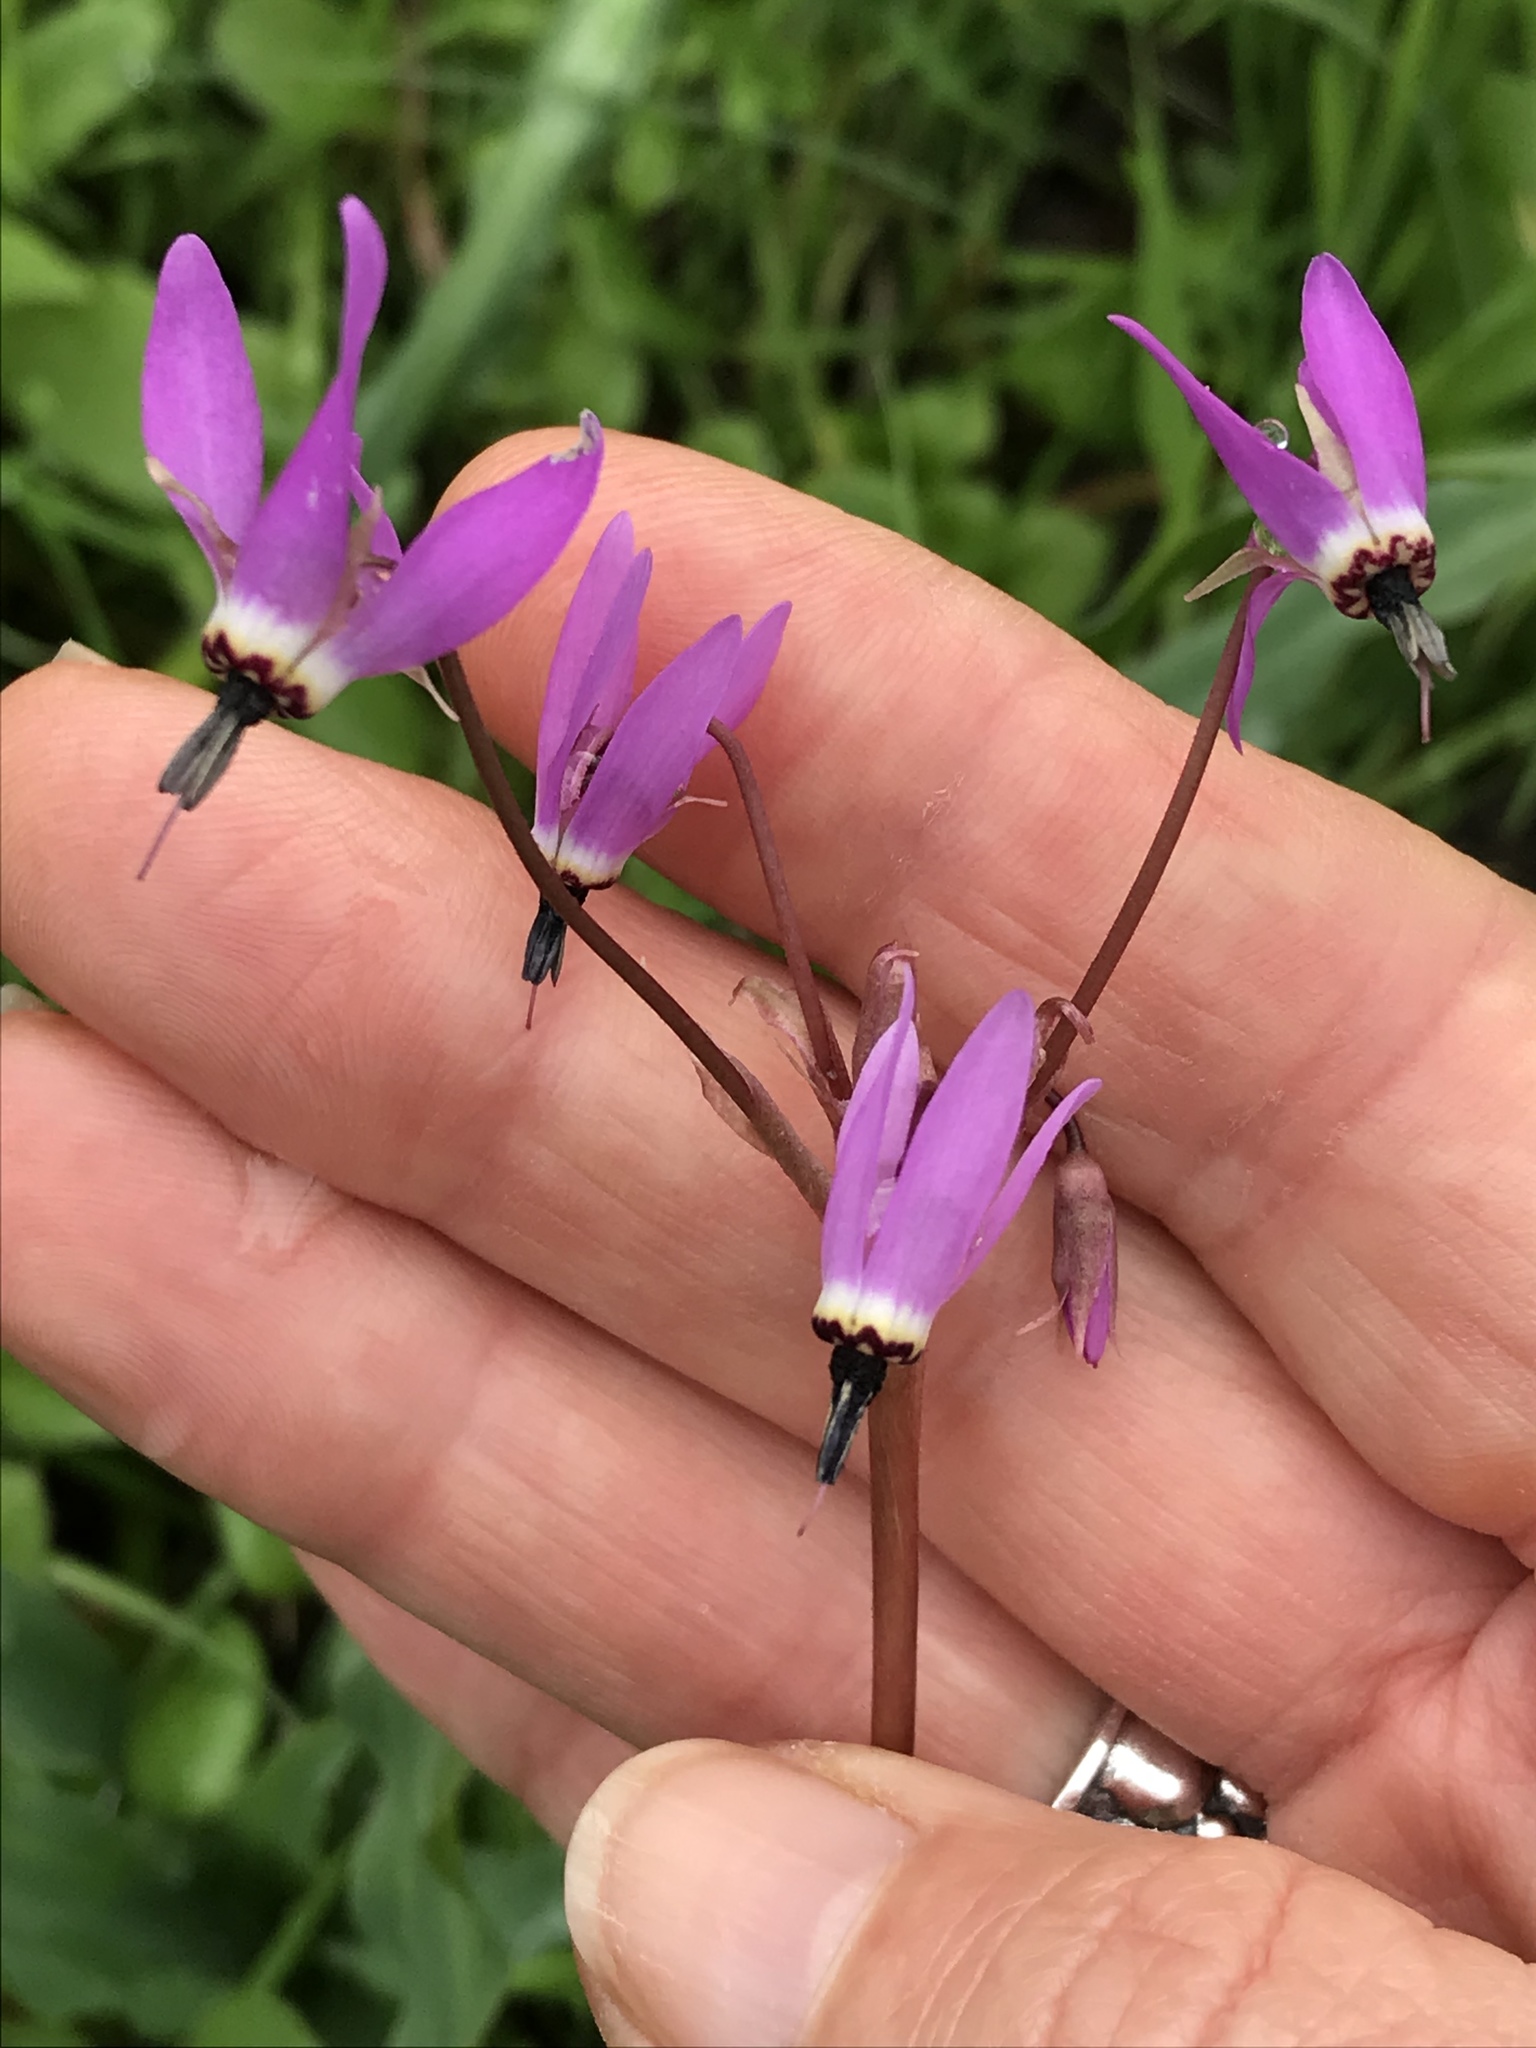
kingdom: Plantae
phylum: Tracheophyta
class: Magnoliopsida
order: Ericales
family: Primulaceae
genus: Dodecatheon
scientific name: Dodecatheon hendersonii
